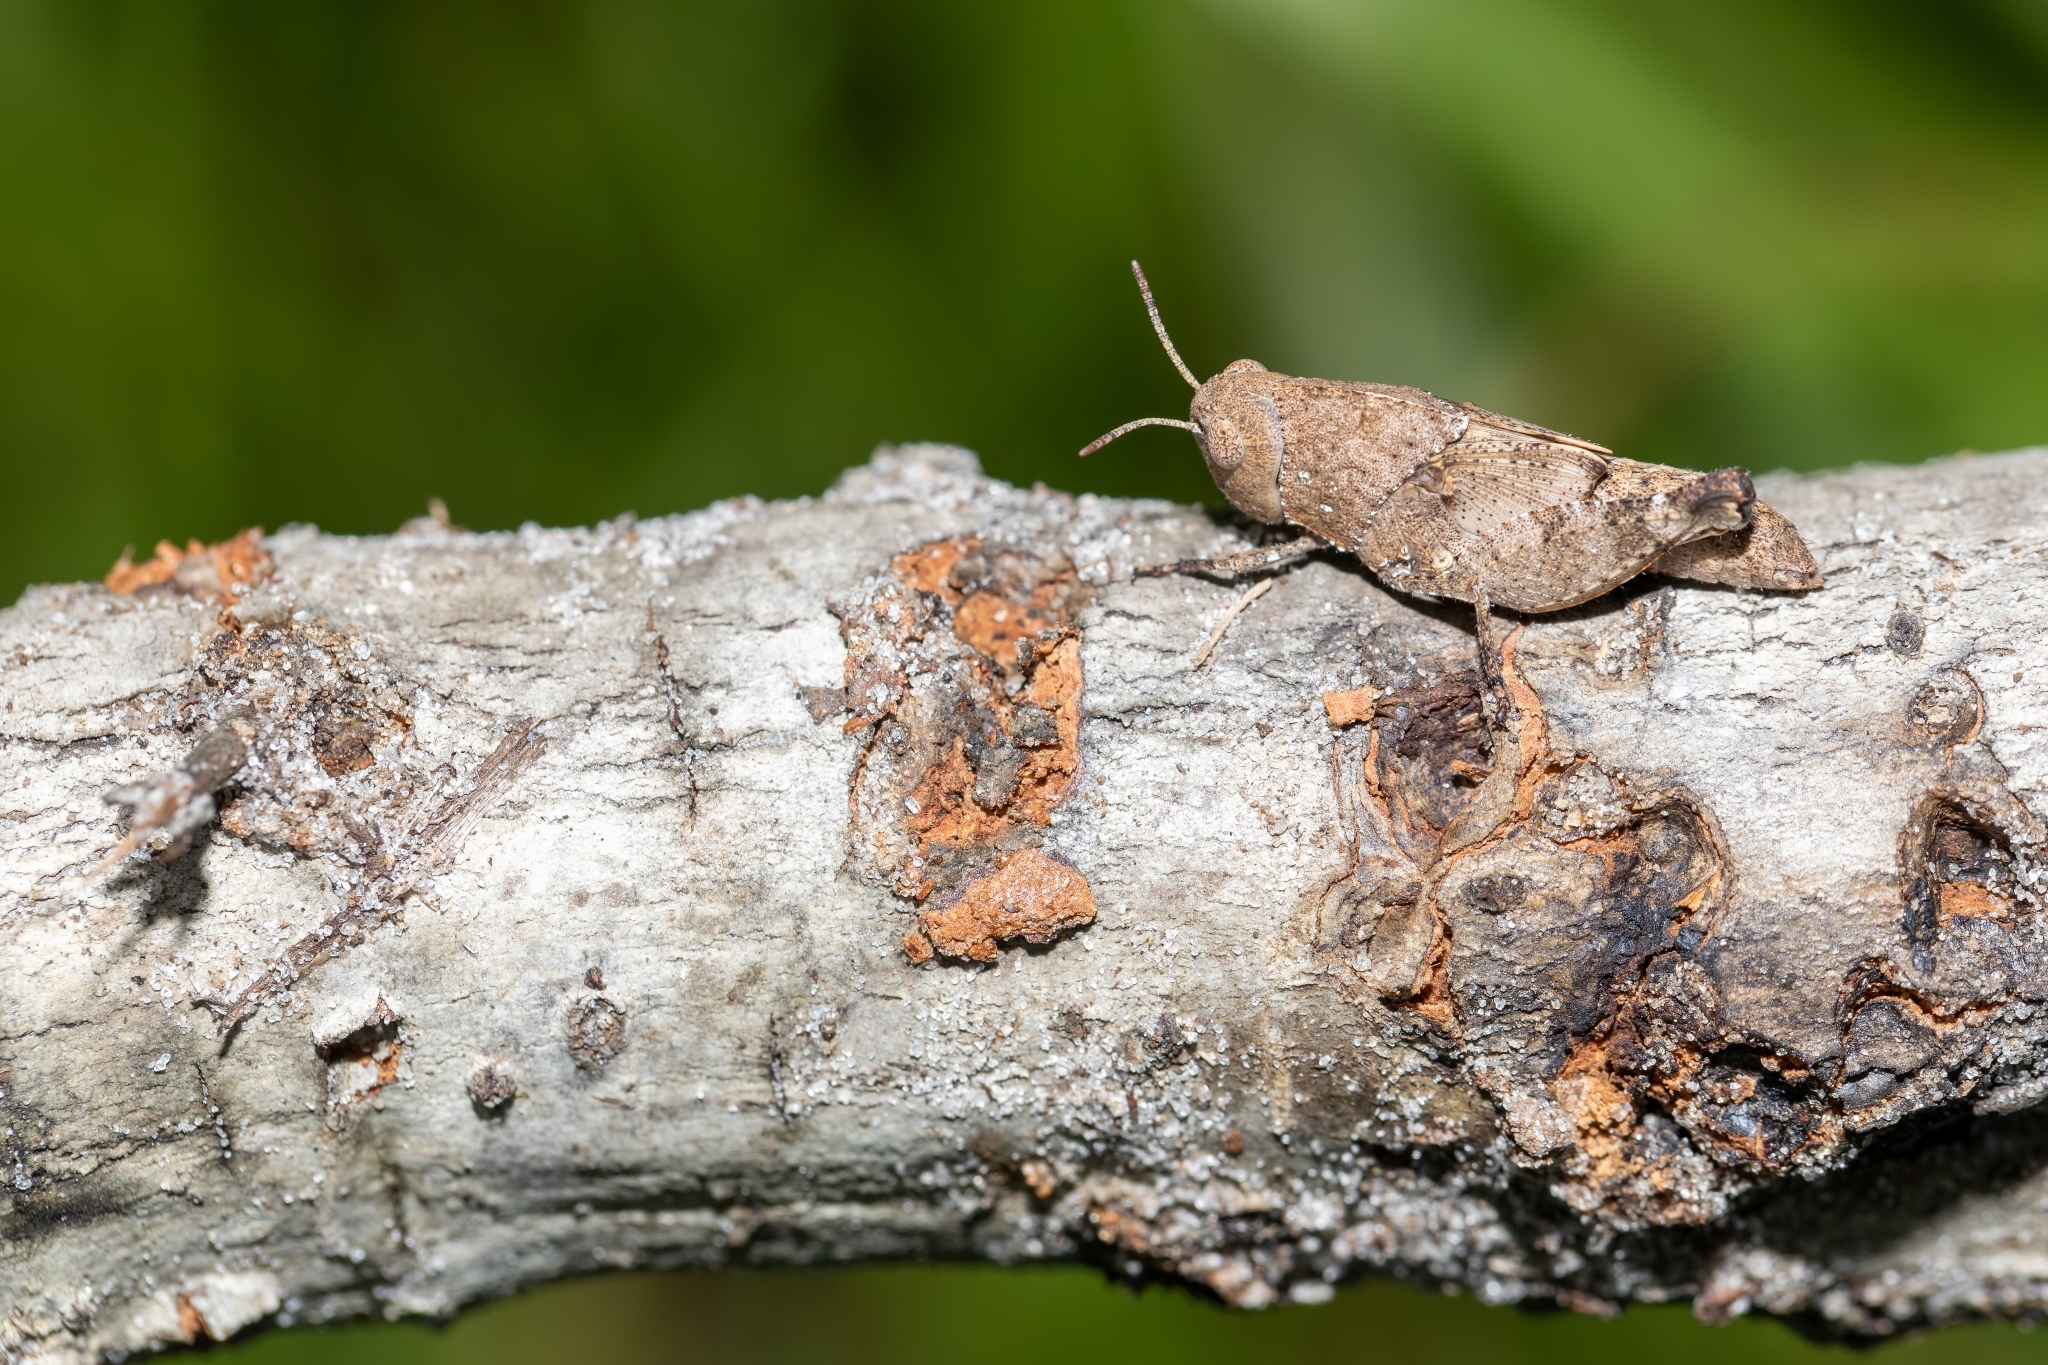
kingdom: Animalia
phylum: Arthropoda
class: Insecta
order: Orthoptera
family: Acrididae
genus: Arphia
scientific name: Arphia granulata
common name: Southern yellow-winged grasshopper
